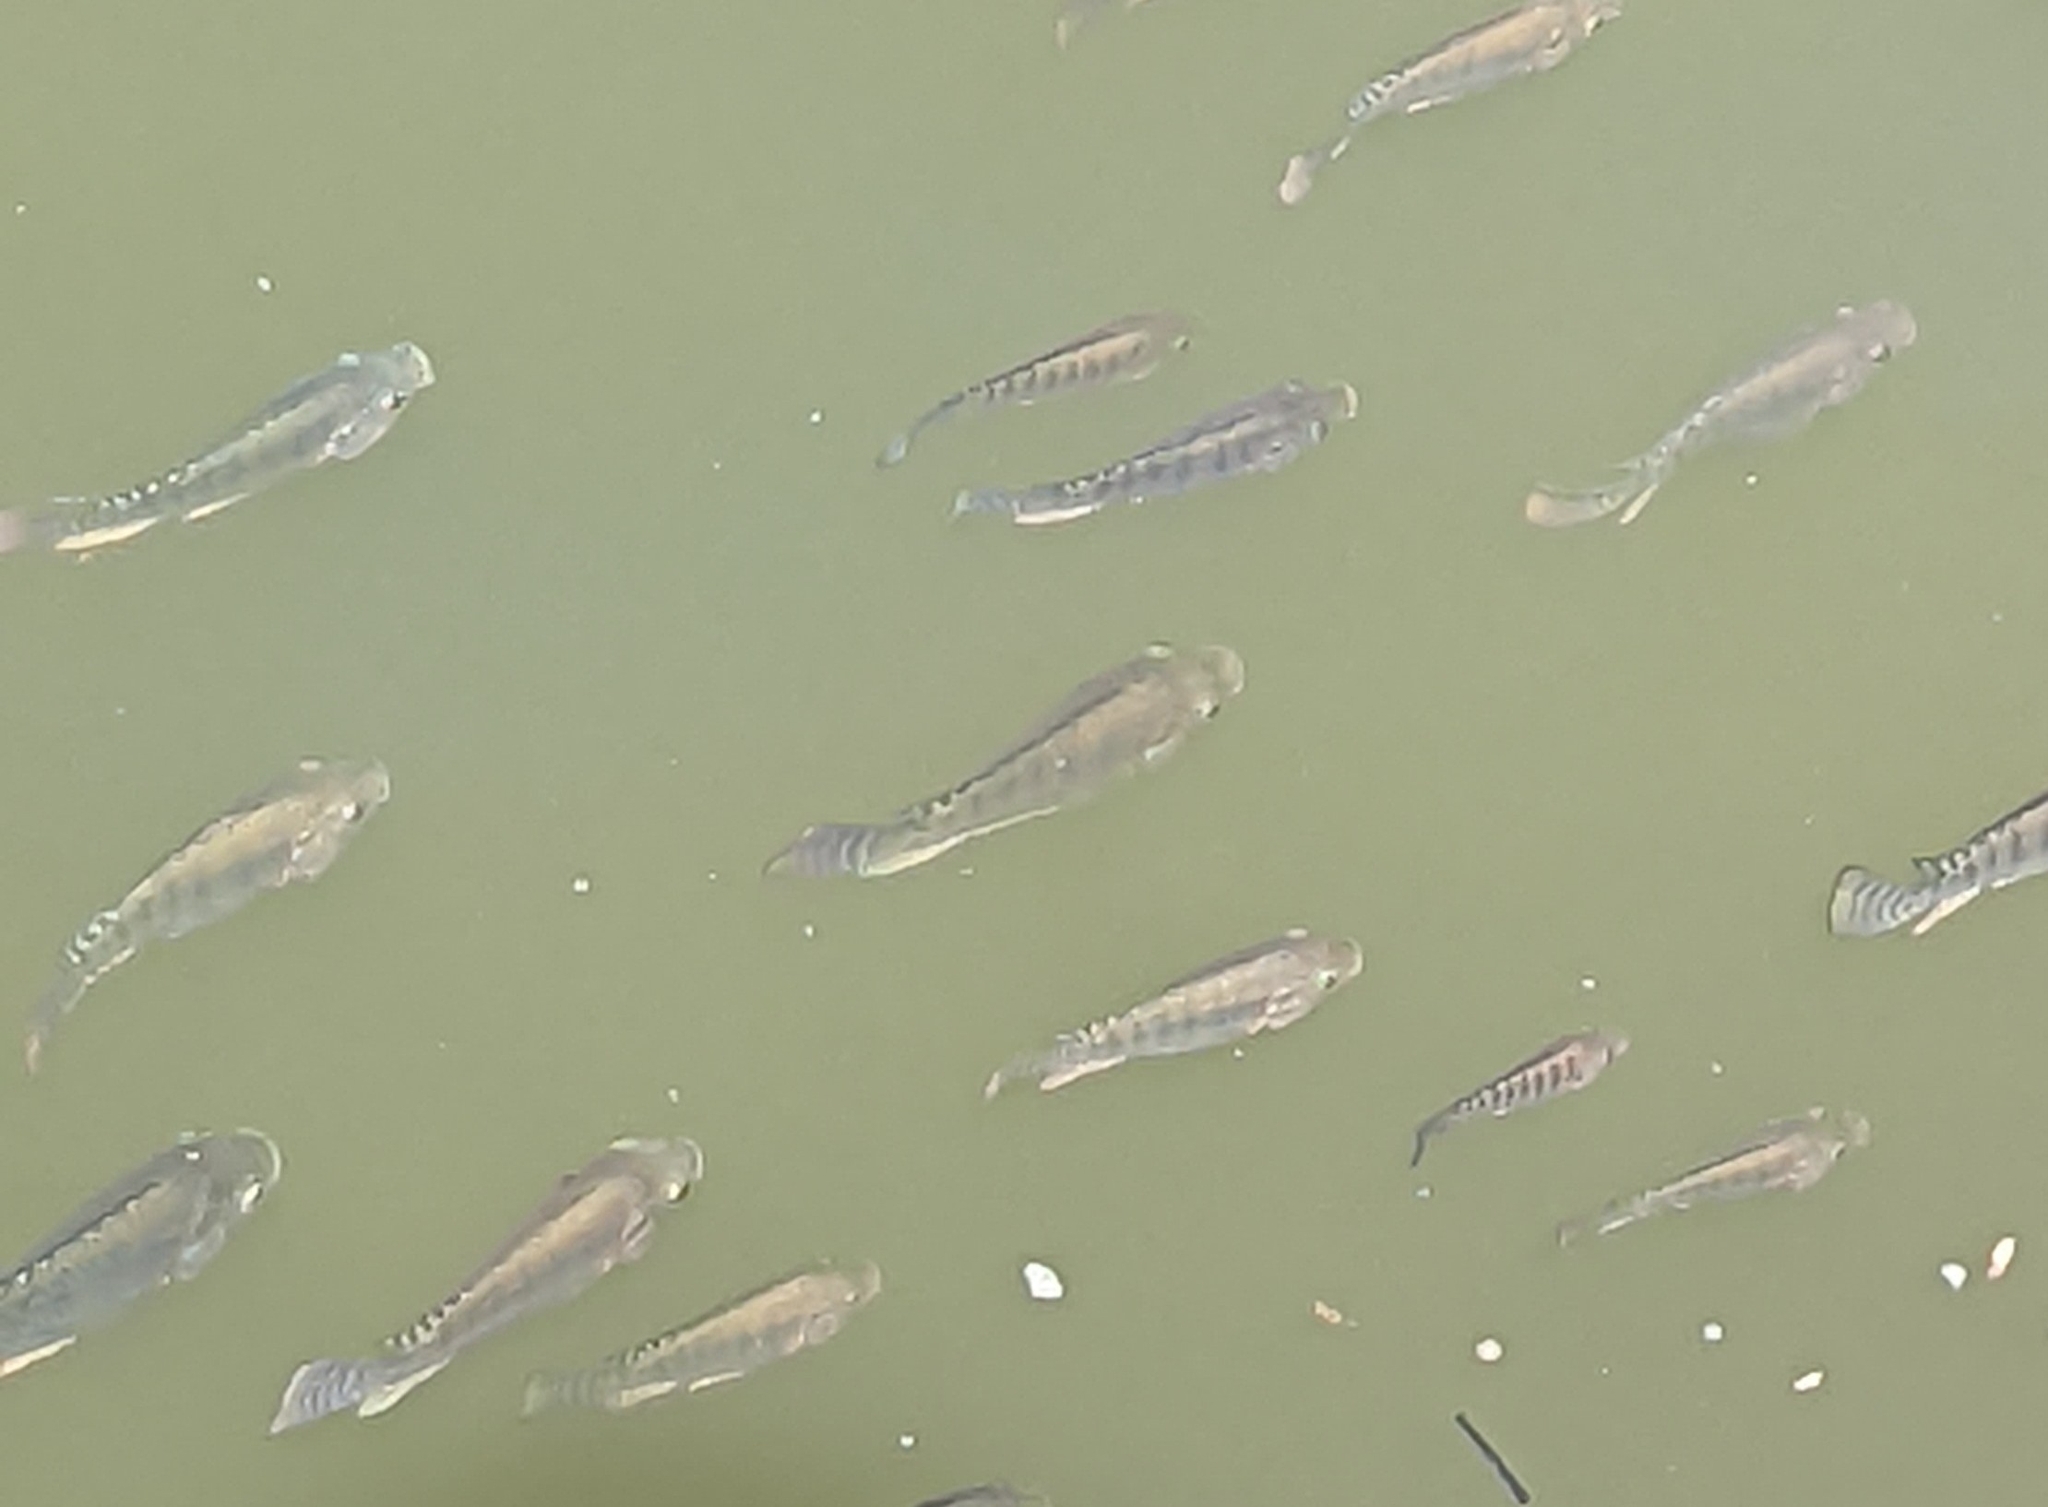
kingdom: Animalia
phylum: Chordata
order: Perciformes
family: Cichlidae
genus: Oreochromis
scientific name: Oreochromis niloticus
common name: Nile tilapia
